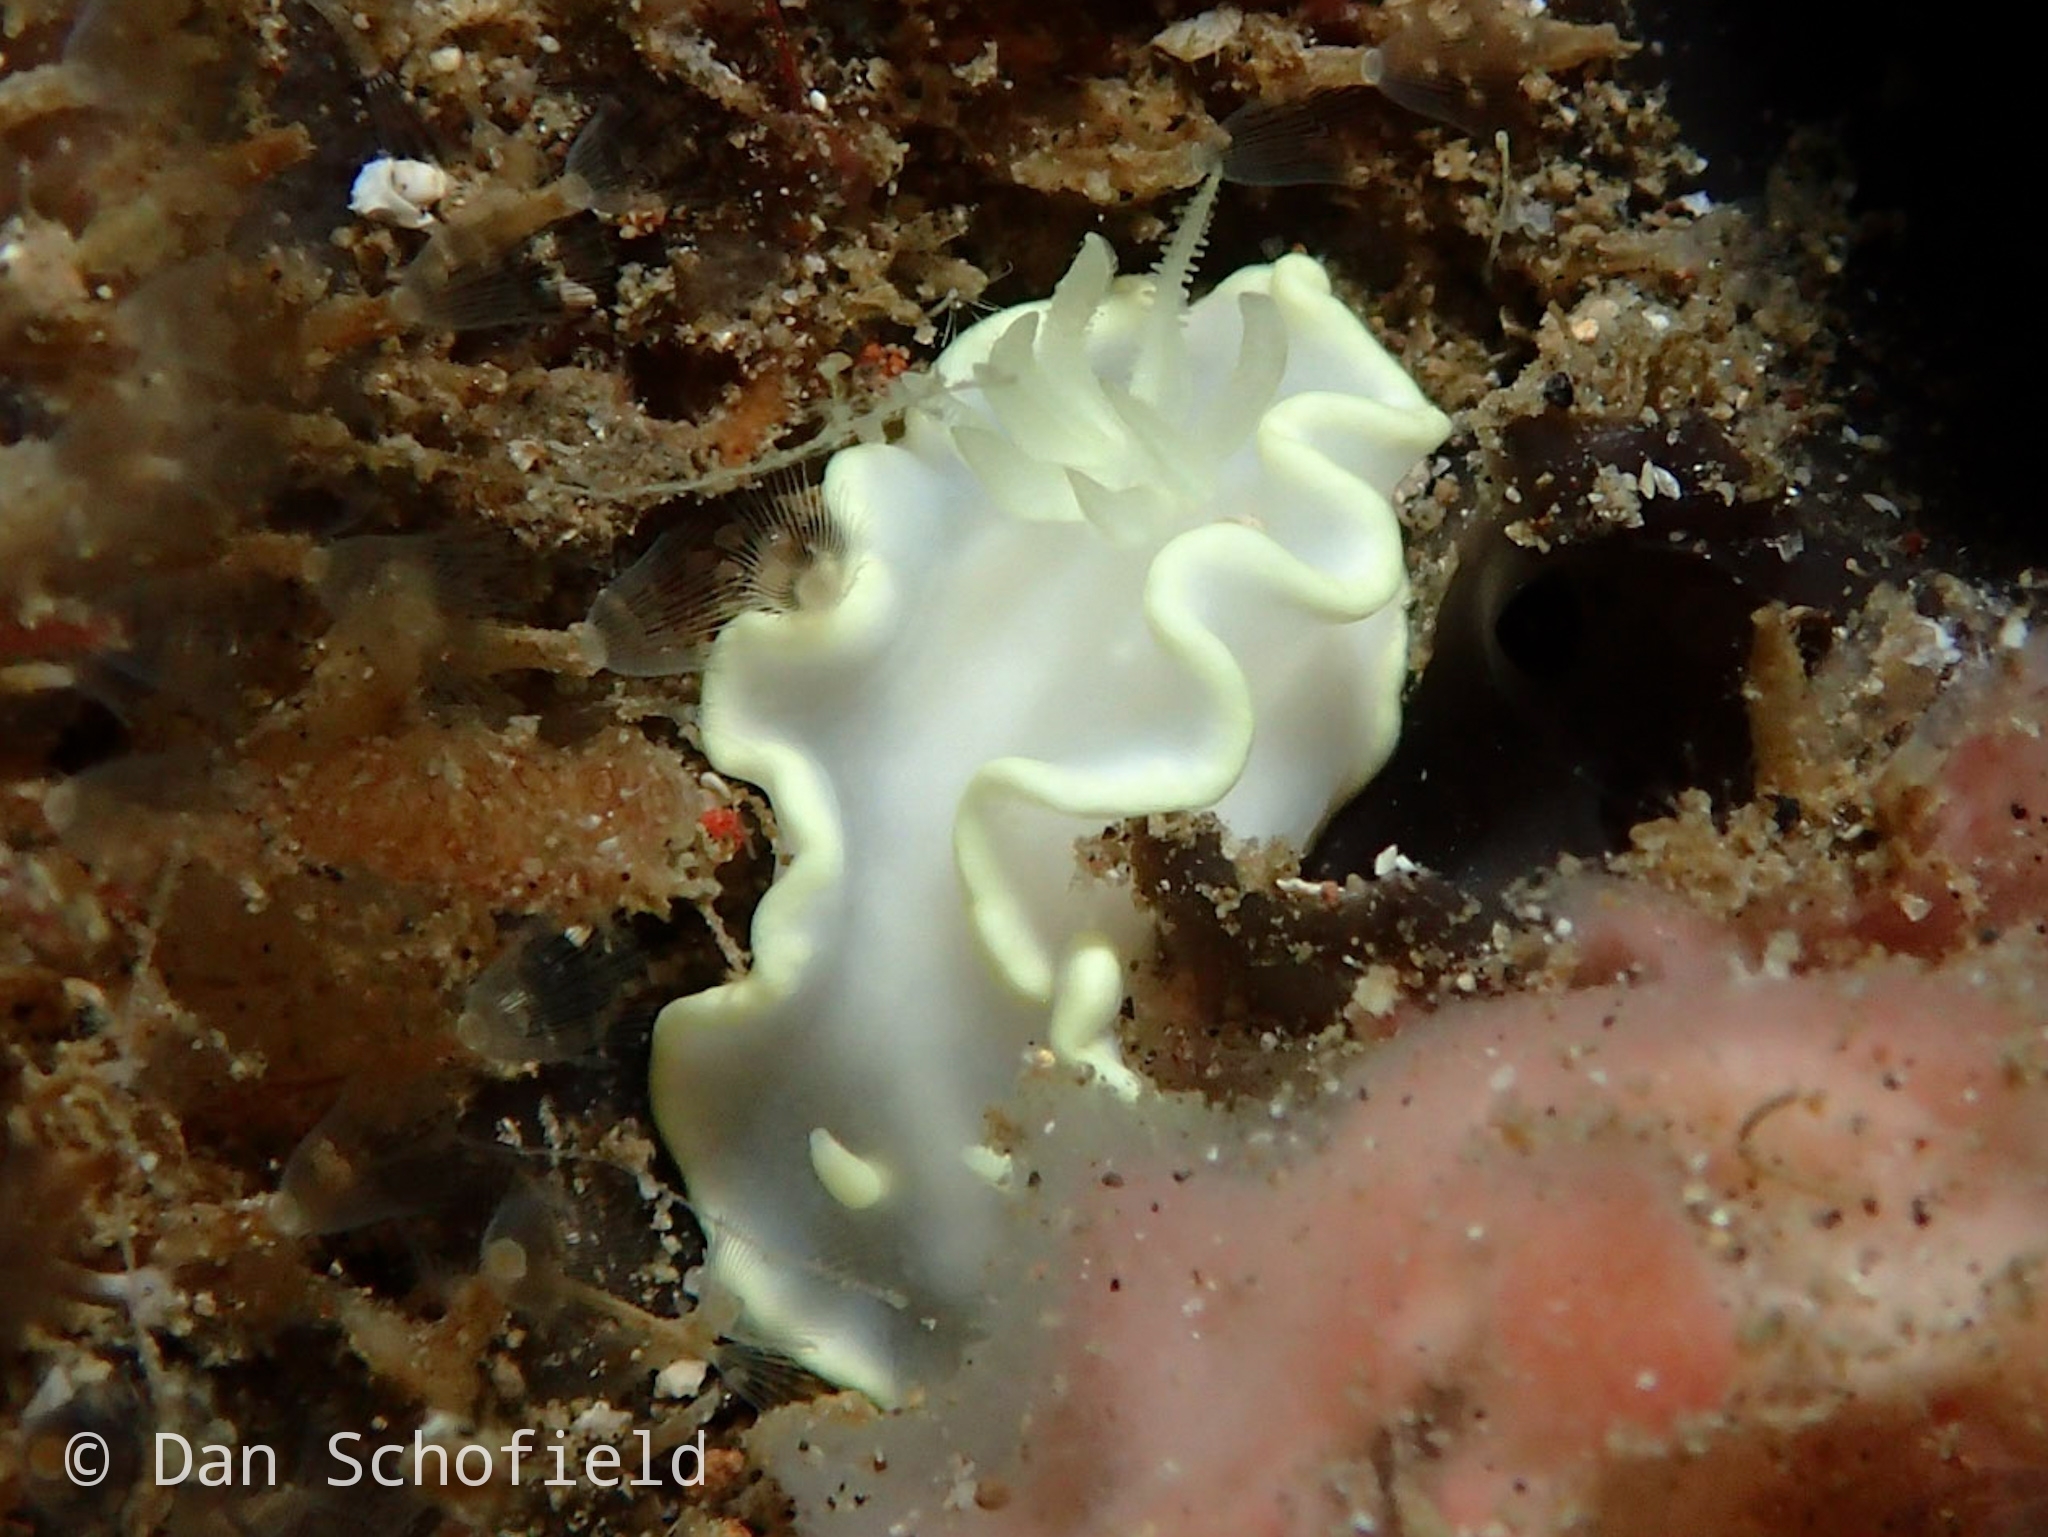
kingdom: Animalia
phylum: Mollusca
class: Gastropoda
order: Nudibranchia
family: Chromodorididae
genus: Glossodoris
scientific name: Glossodoris buko
